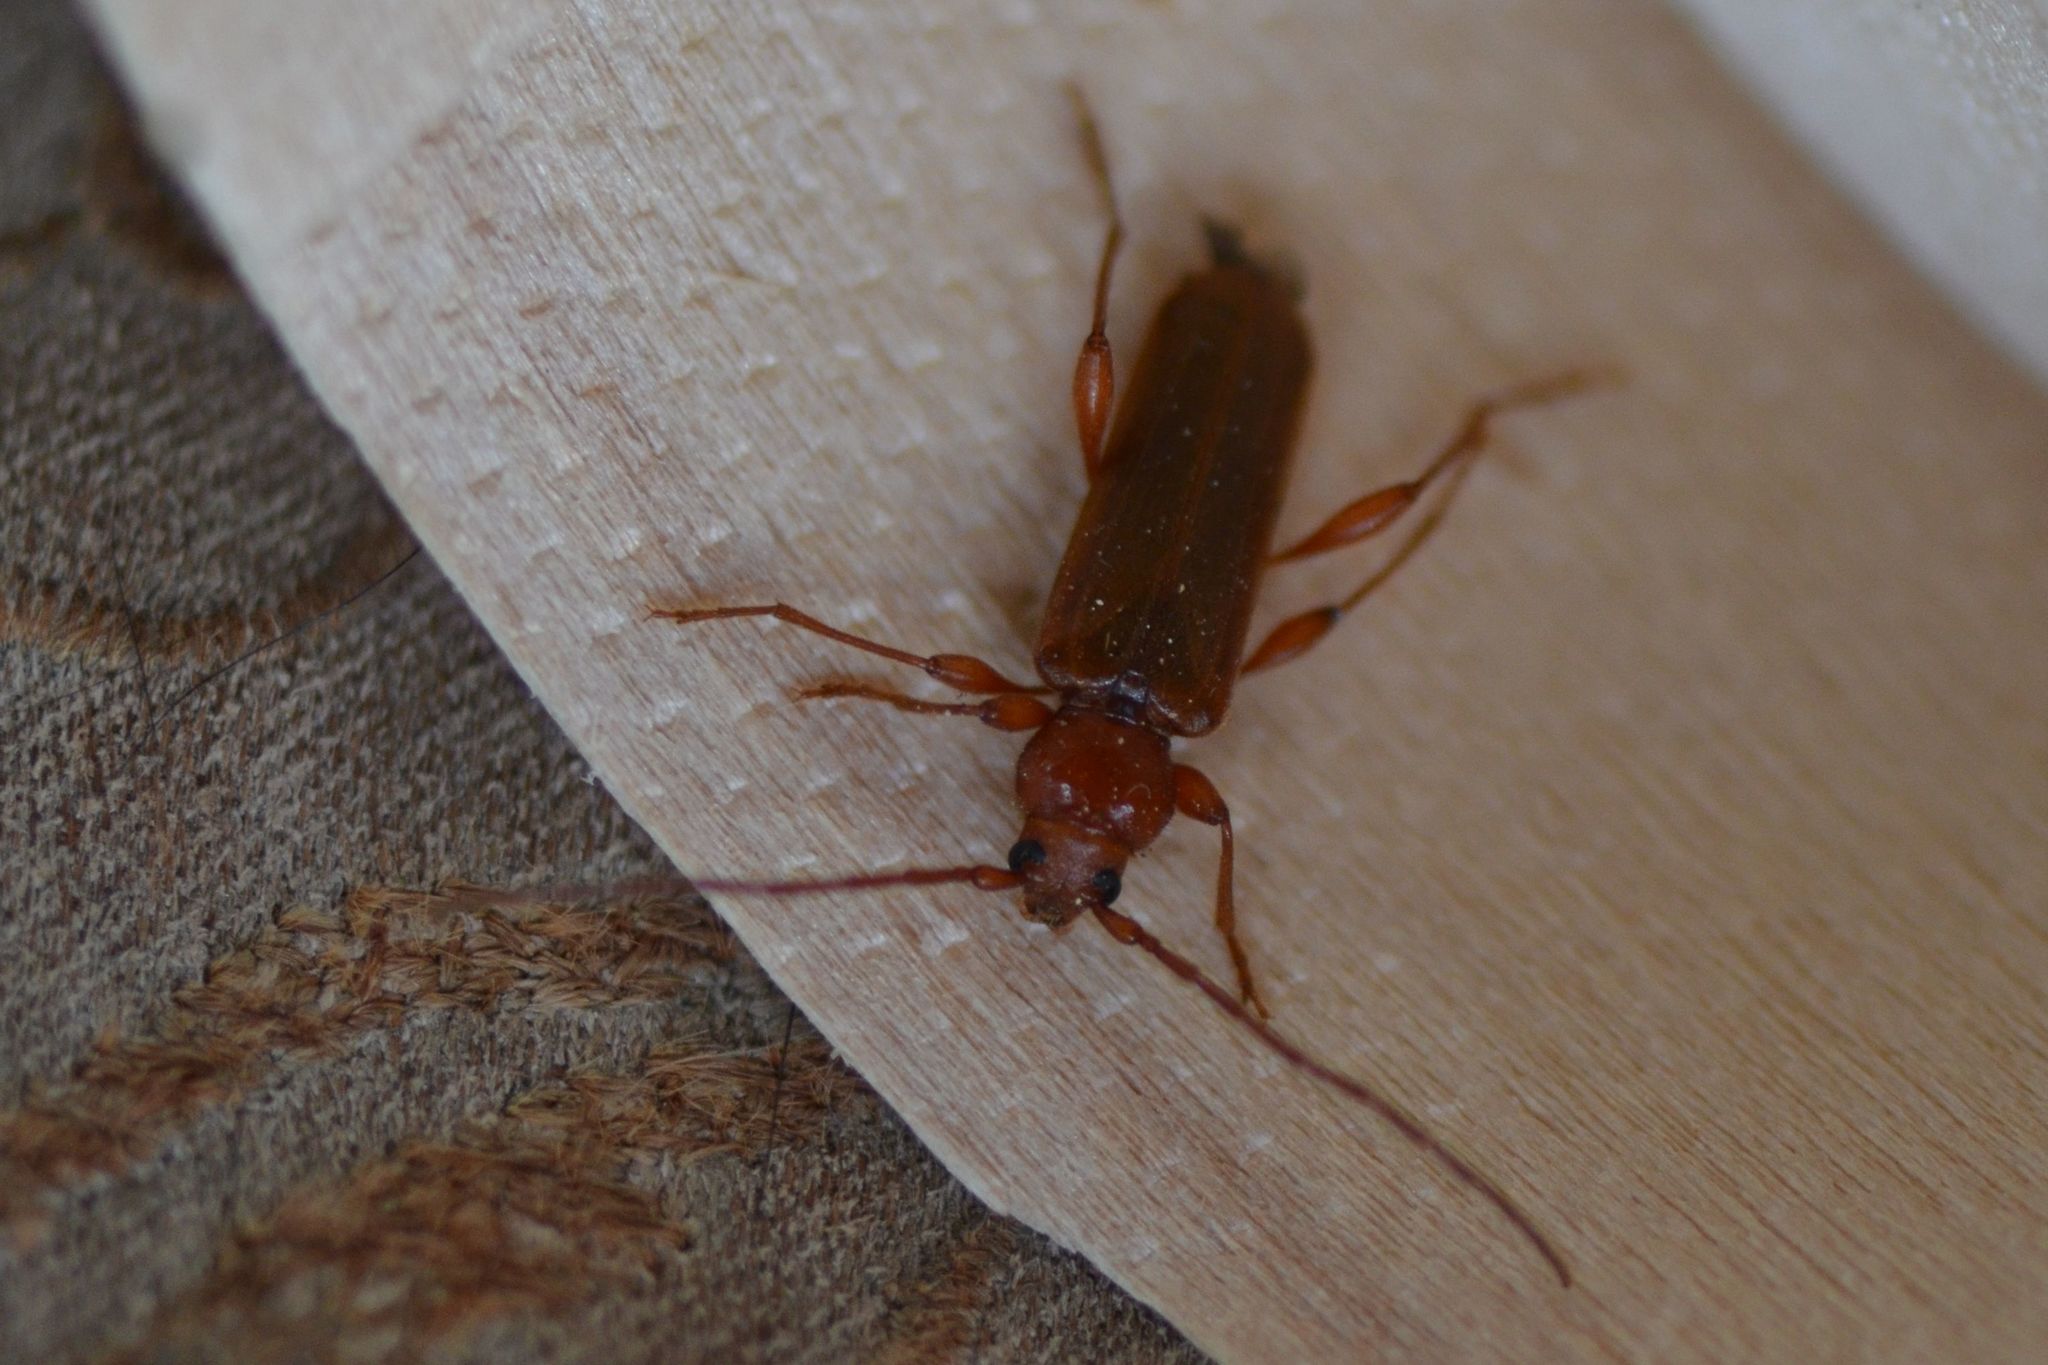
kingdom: Animalia
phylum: Arthropoda
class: Insecta
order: Coleoptera
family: Cerambycidae
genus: Phymatodes
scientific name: Phymatodes testaceus
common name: Long-horned beetle
